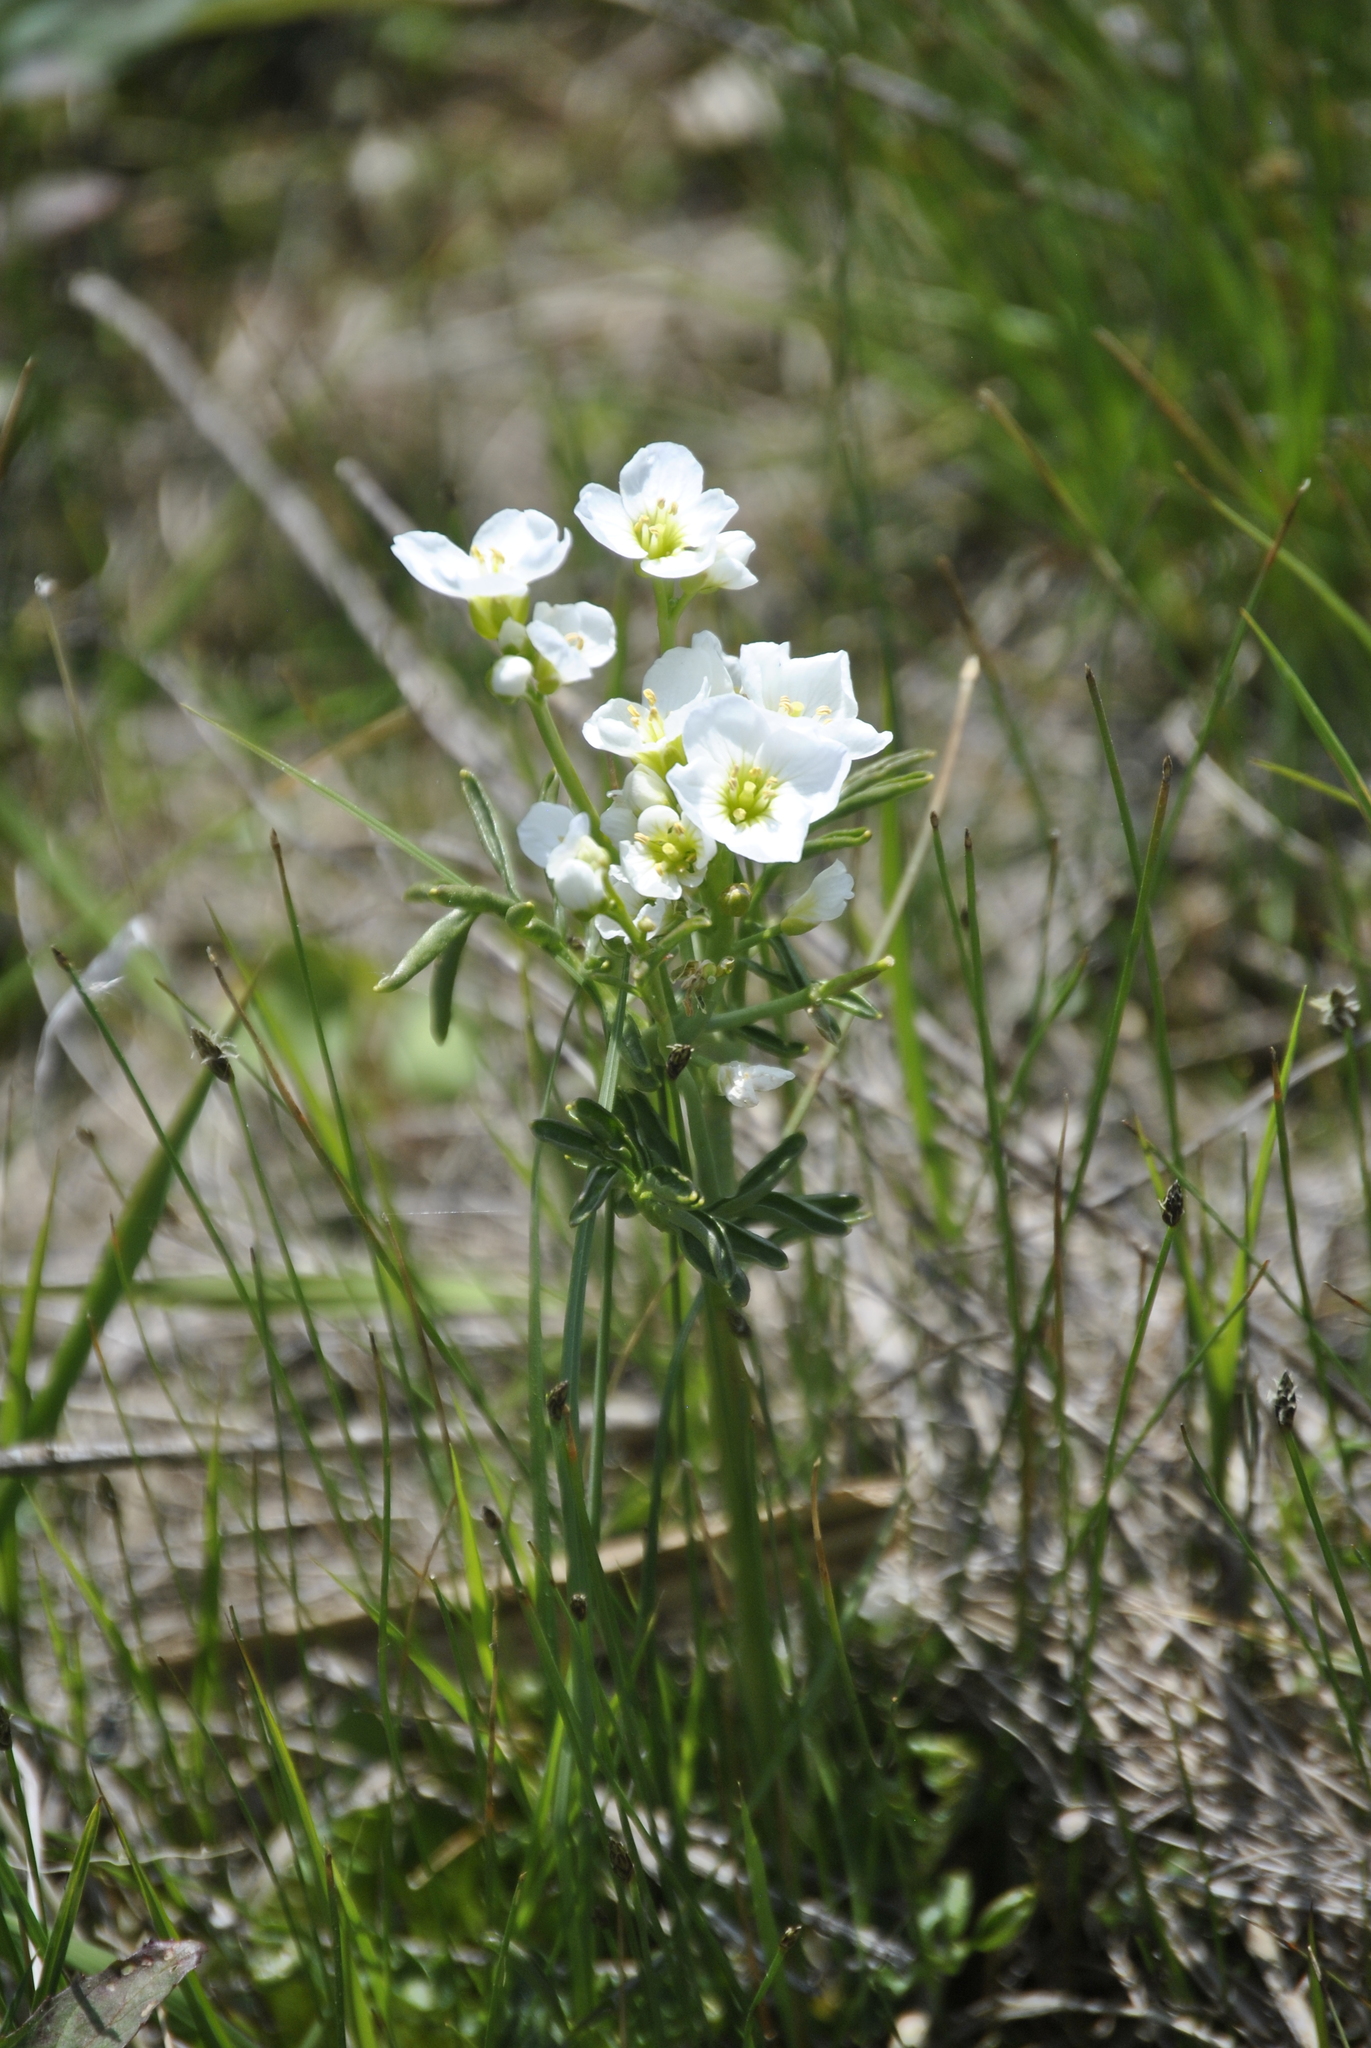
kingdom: Plantae
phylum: Tracheophyta
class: Magnoliopsida
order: Brassicales
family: Brassicaceae
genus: Cardamine
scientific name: Cardamine pratensis
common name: Cuckoo flower
